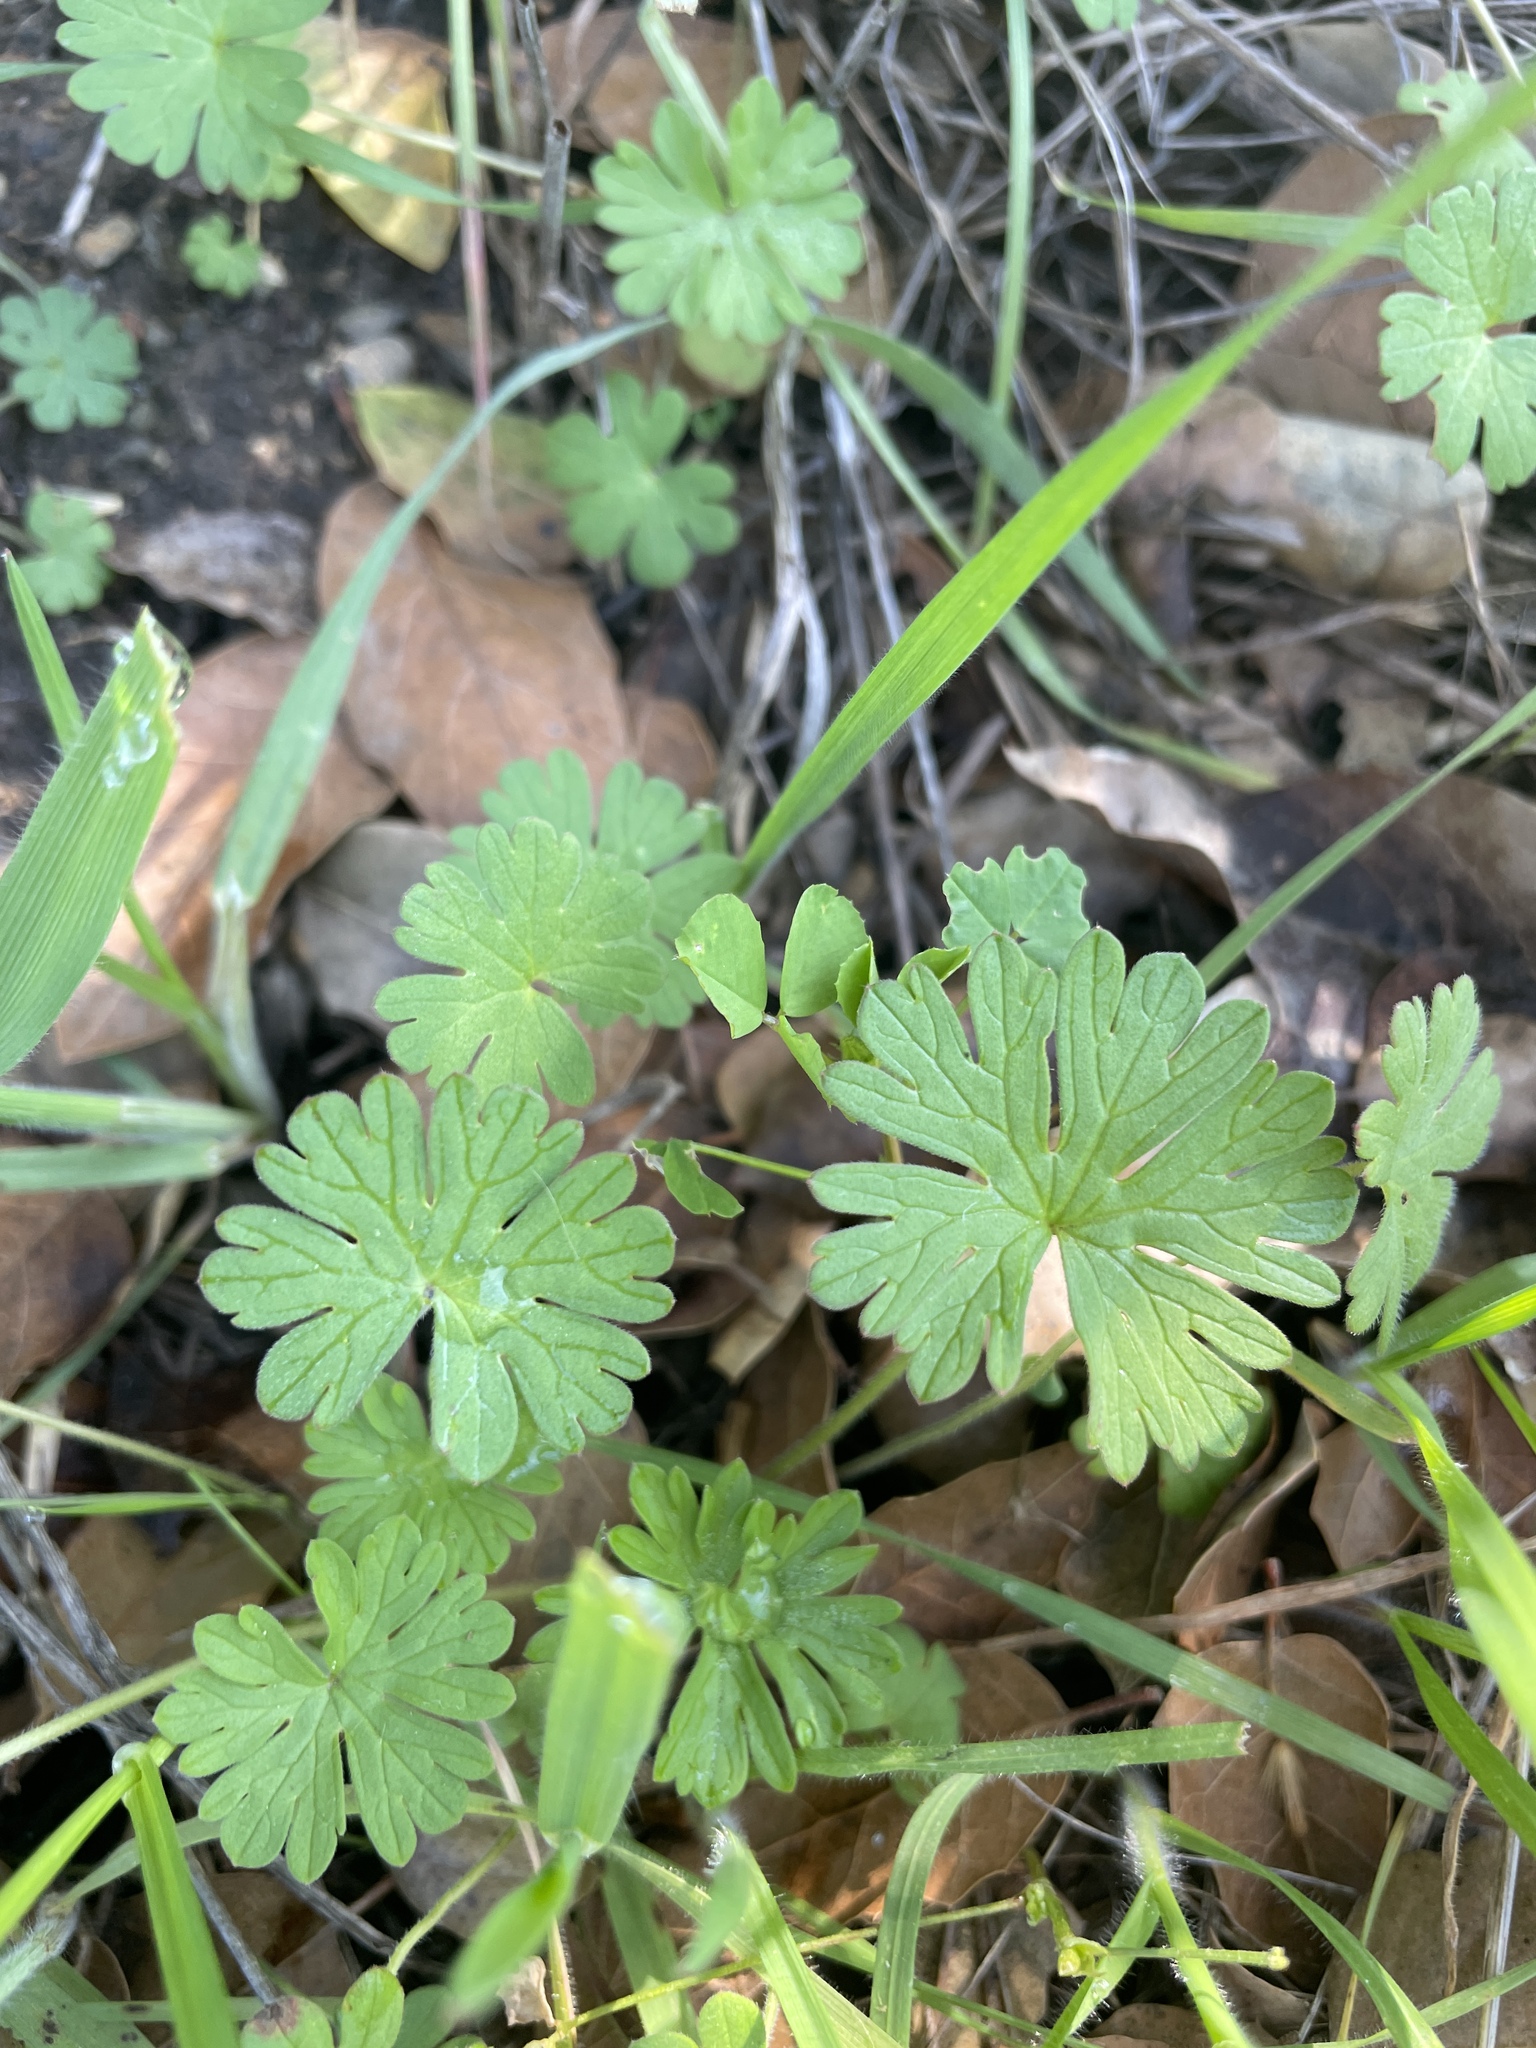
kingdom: Plantae
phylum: Tracheophyta
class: Magnoliopsida
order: Geraniales
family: Geraniaceae
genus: Geranium
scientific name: Geranium
